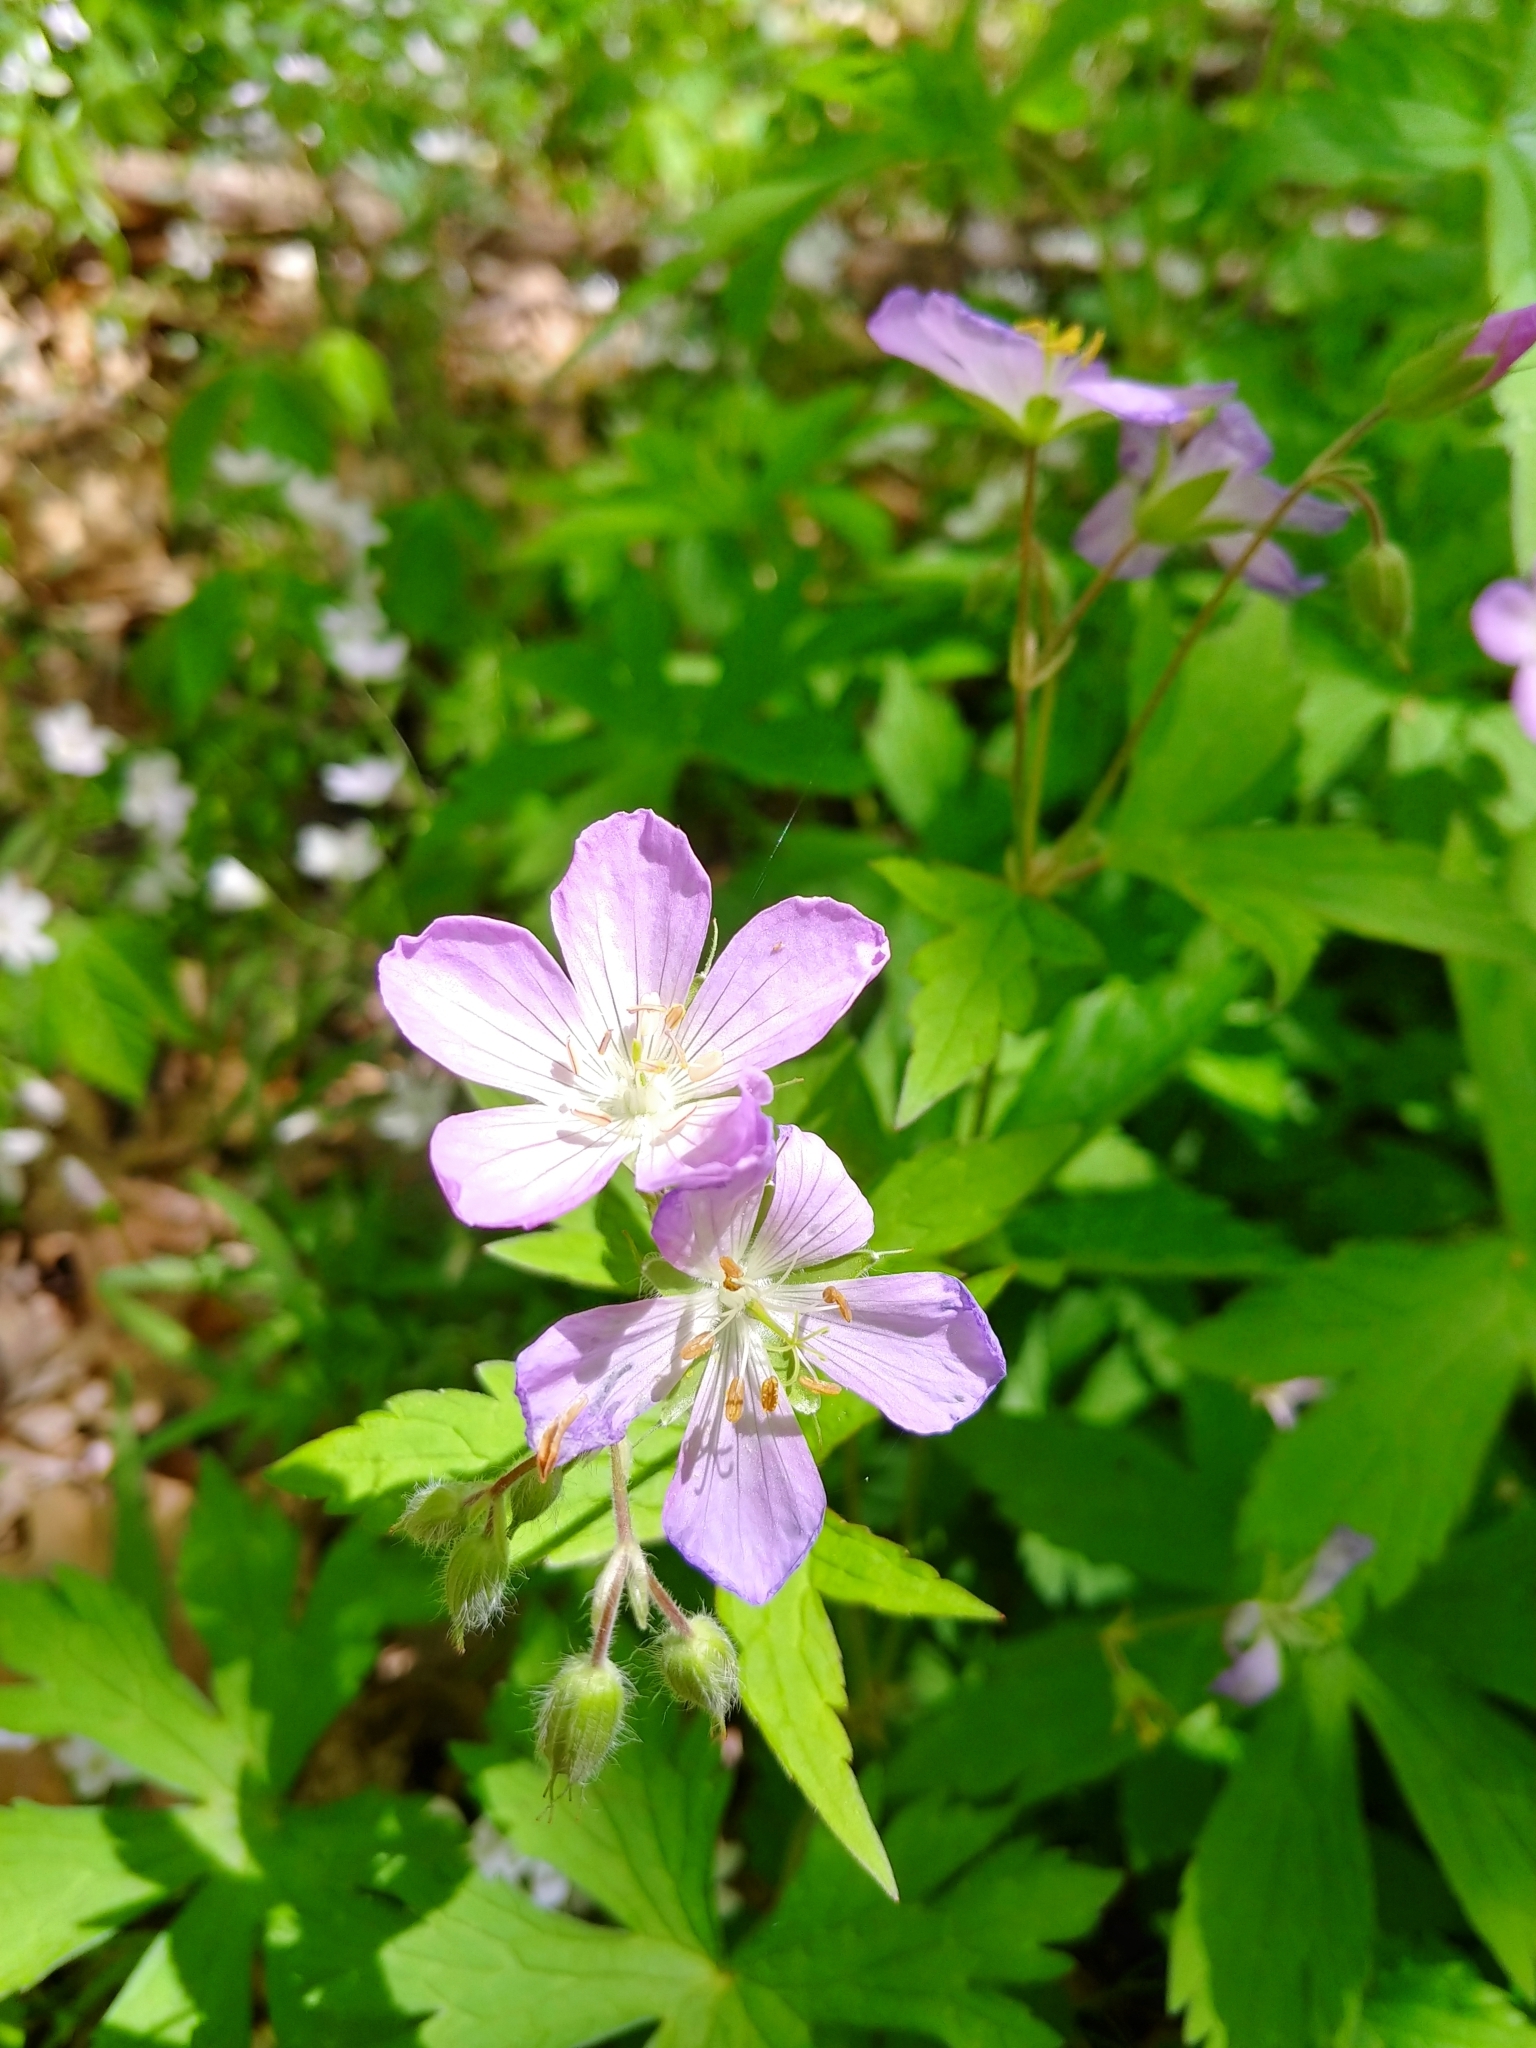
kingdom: Plantae
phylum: Tracheophyta
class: Magnoliopsida
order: Geraniales
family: Geraniaceae
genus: Geranium
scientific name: Geranium maculatum
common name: Spotted geranium
